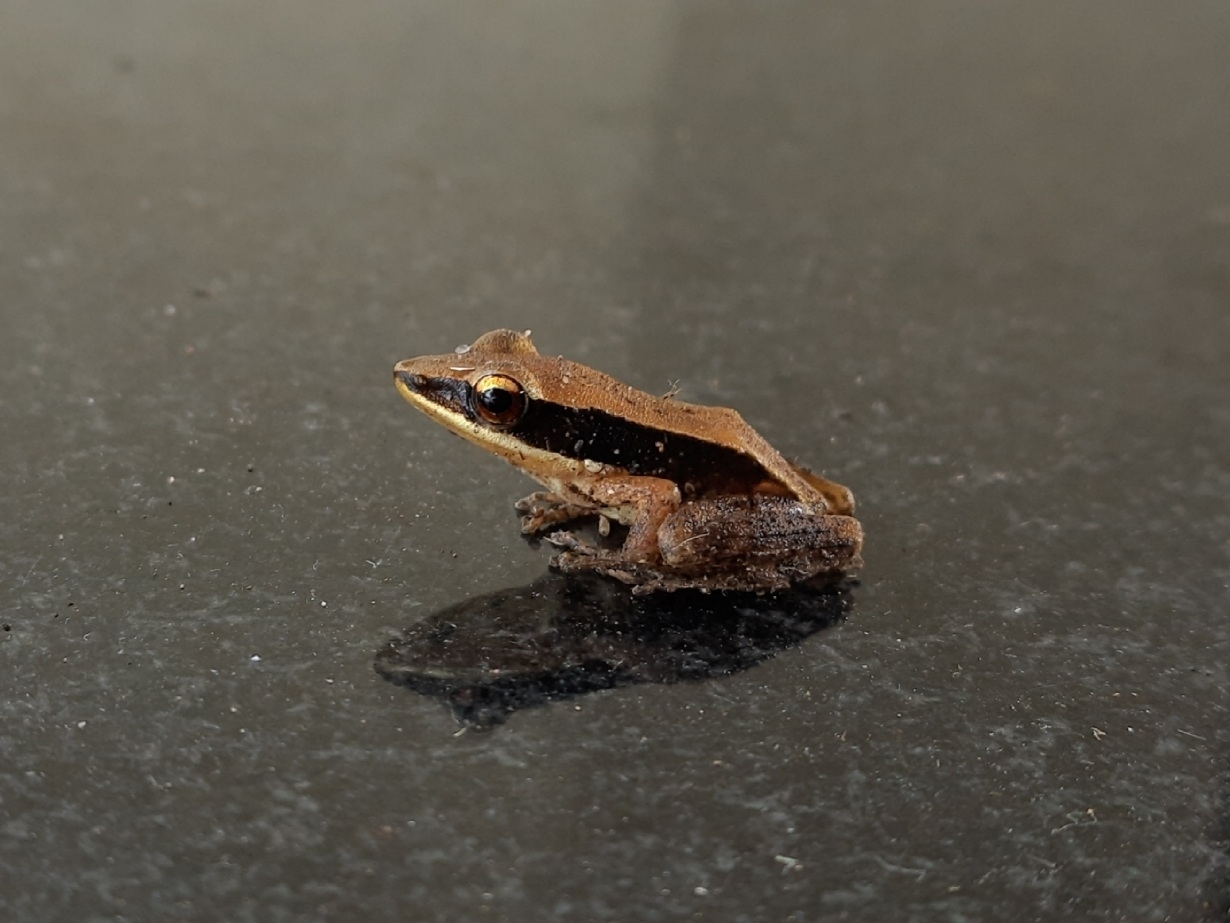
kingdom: Animalia
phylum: Chordata
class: Amphibia
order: Anura
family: Ranidae
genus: Indosylvirana
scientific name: Indosylvirana aurantiaca
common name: Boulenger's golden-backed frog
